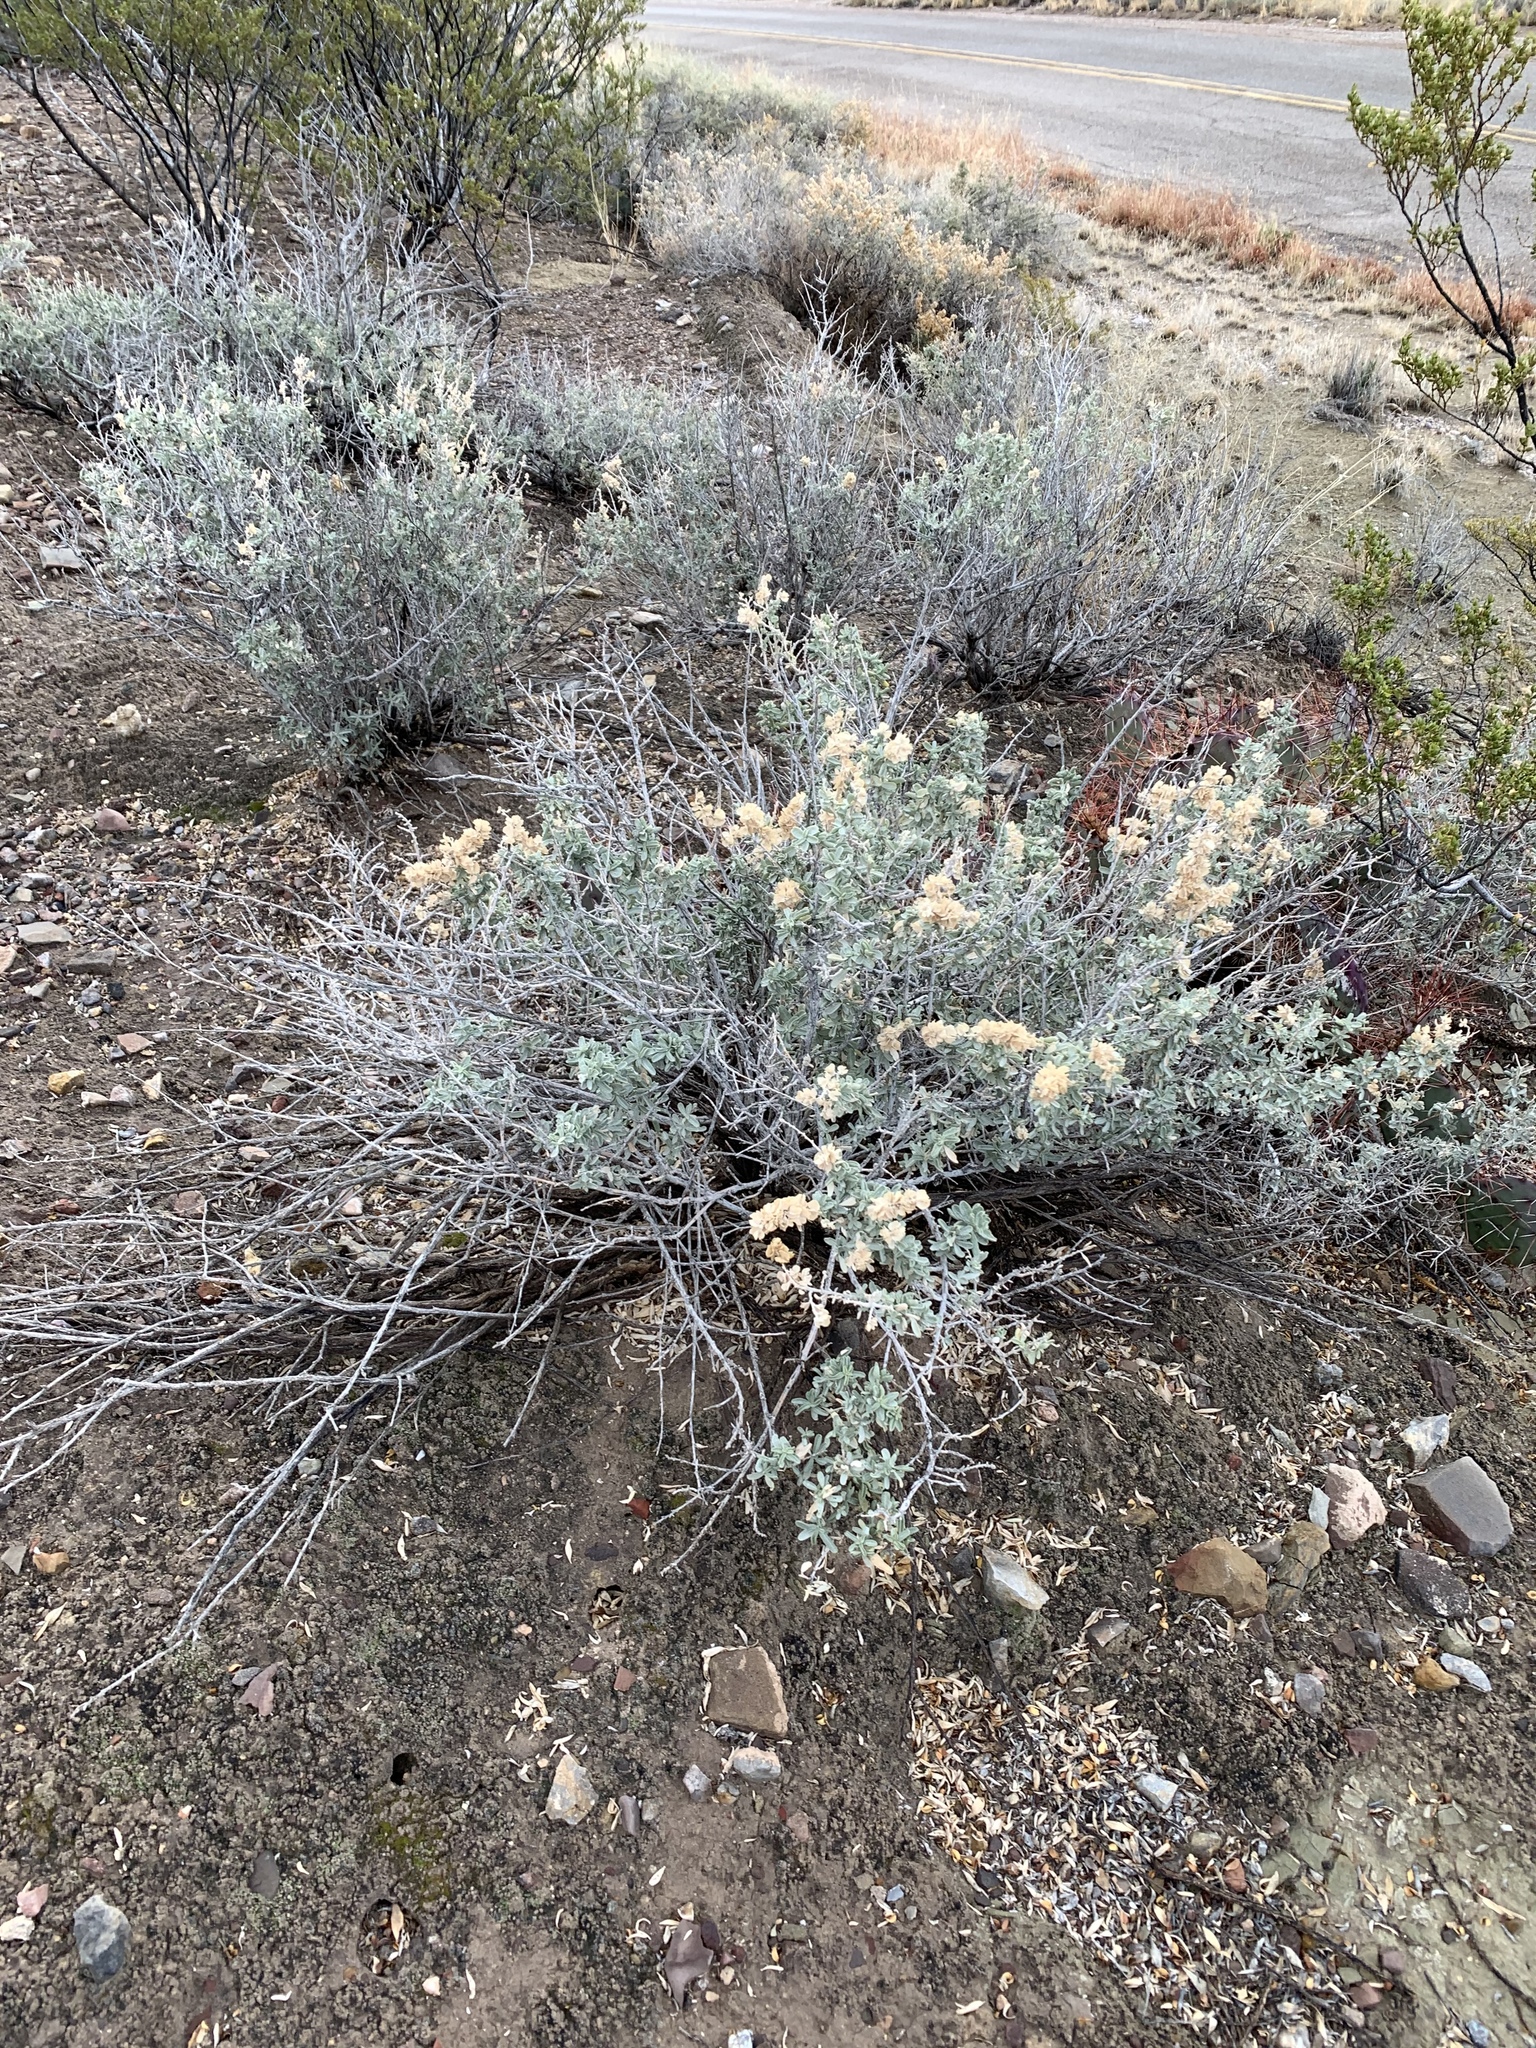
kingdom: Plantae
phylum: Tracheophyta
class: Magnoliopsida
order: Caryophyllales
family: Amaranthaceae
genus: Atriplex
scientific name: Atriplex canescens
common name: Four-wing saltbush
